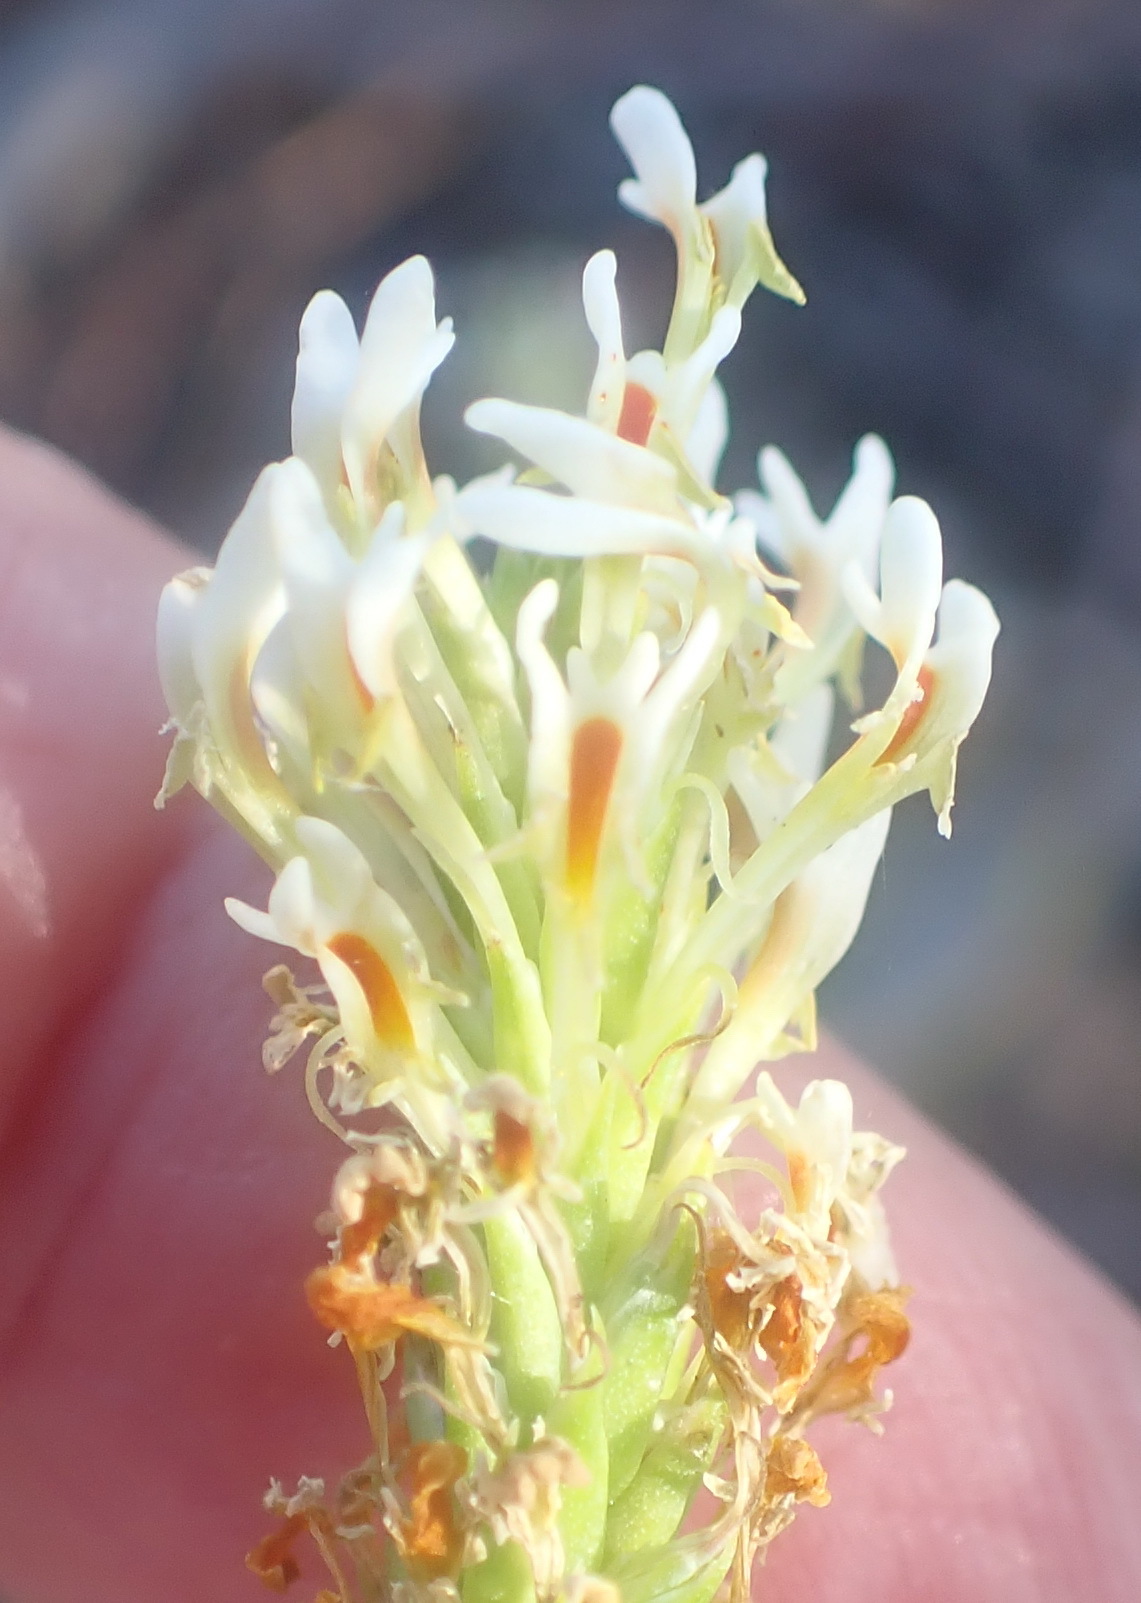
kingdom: Plantae
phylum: Tracheophyta
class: Magnoliopsida
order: Lamiales
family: Scrophulariaceae
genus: Hebenstretia
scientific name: Hebenstretia integrifolia
